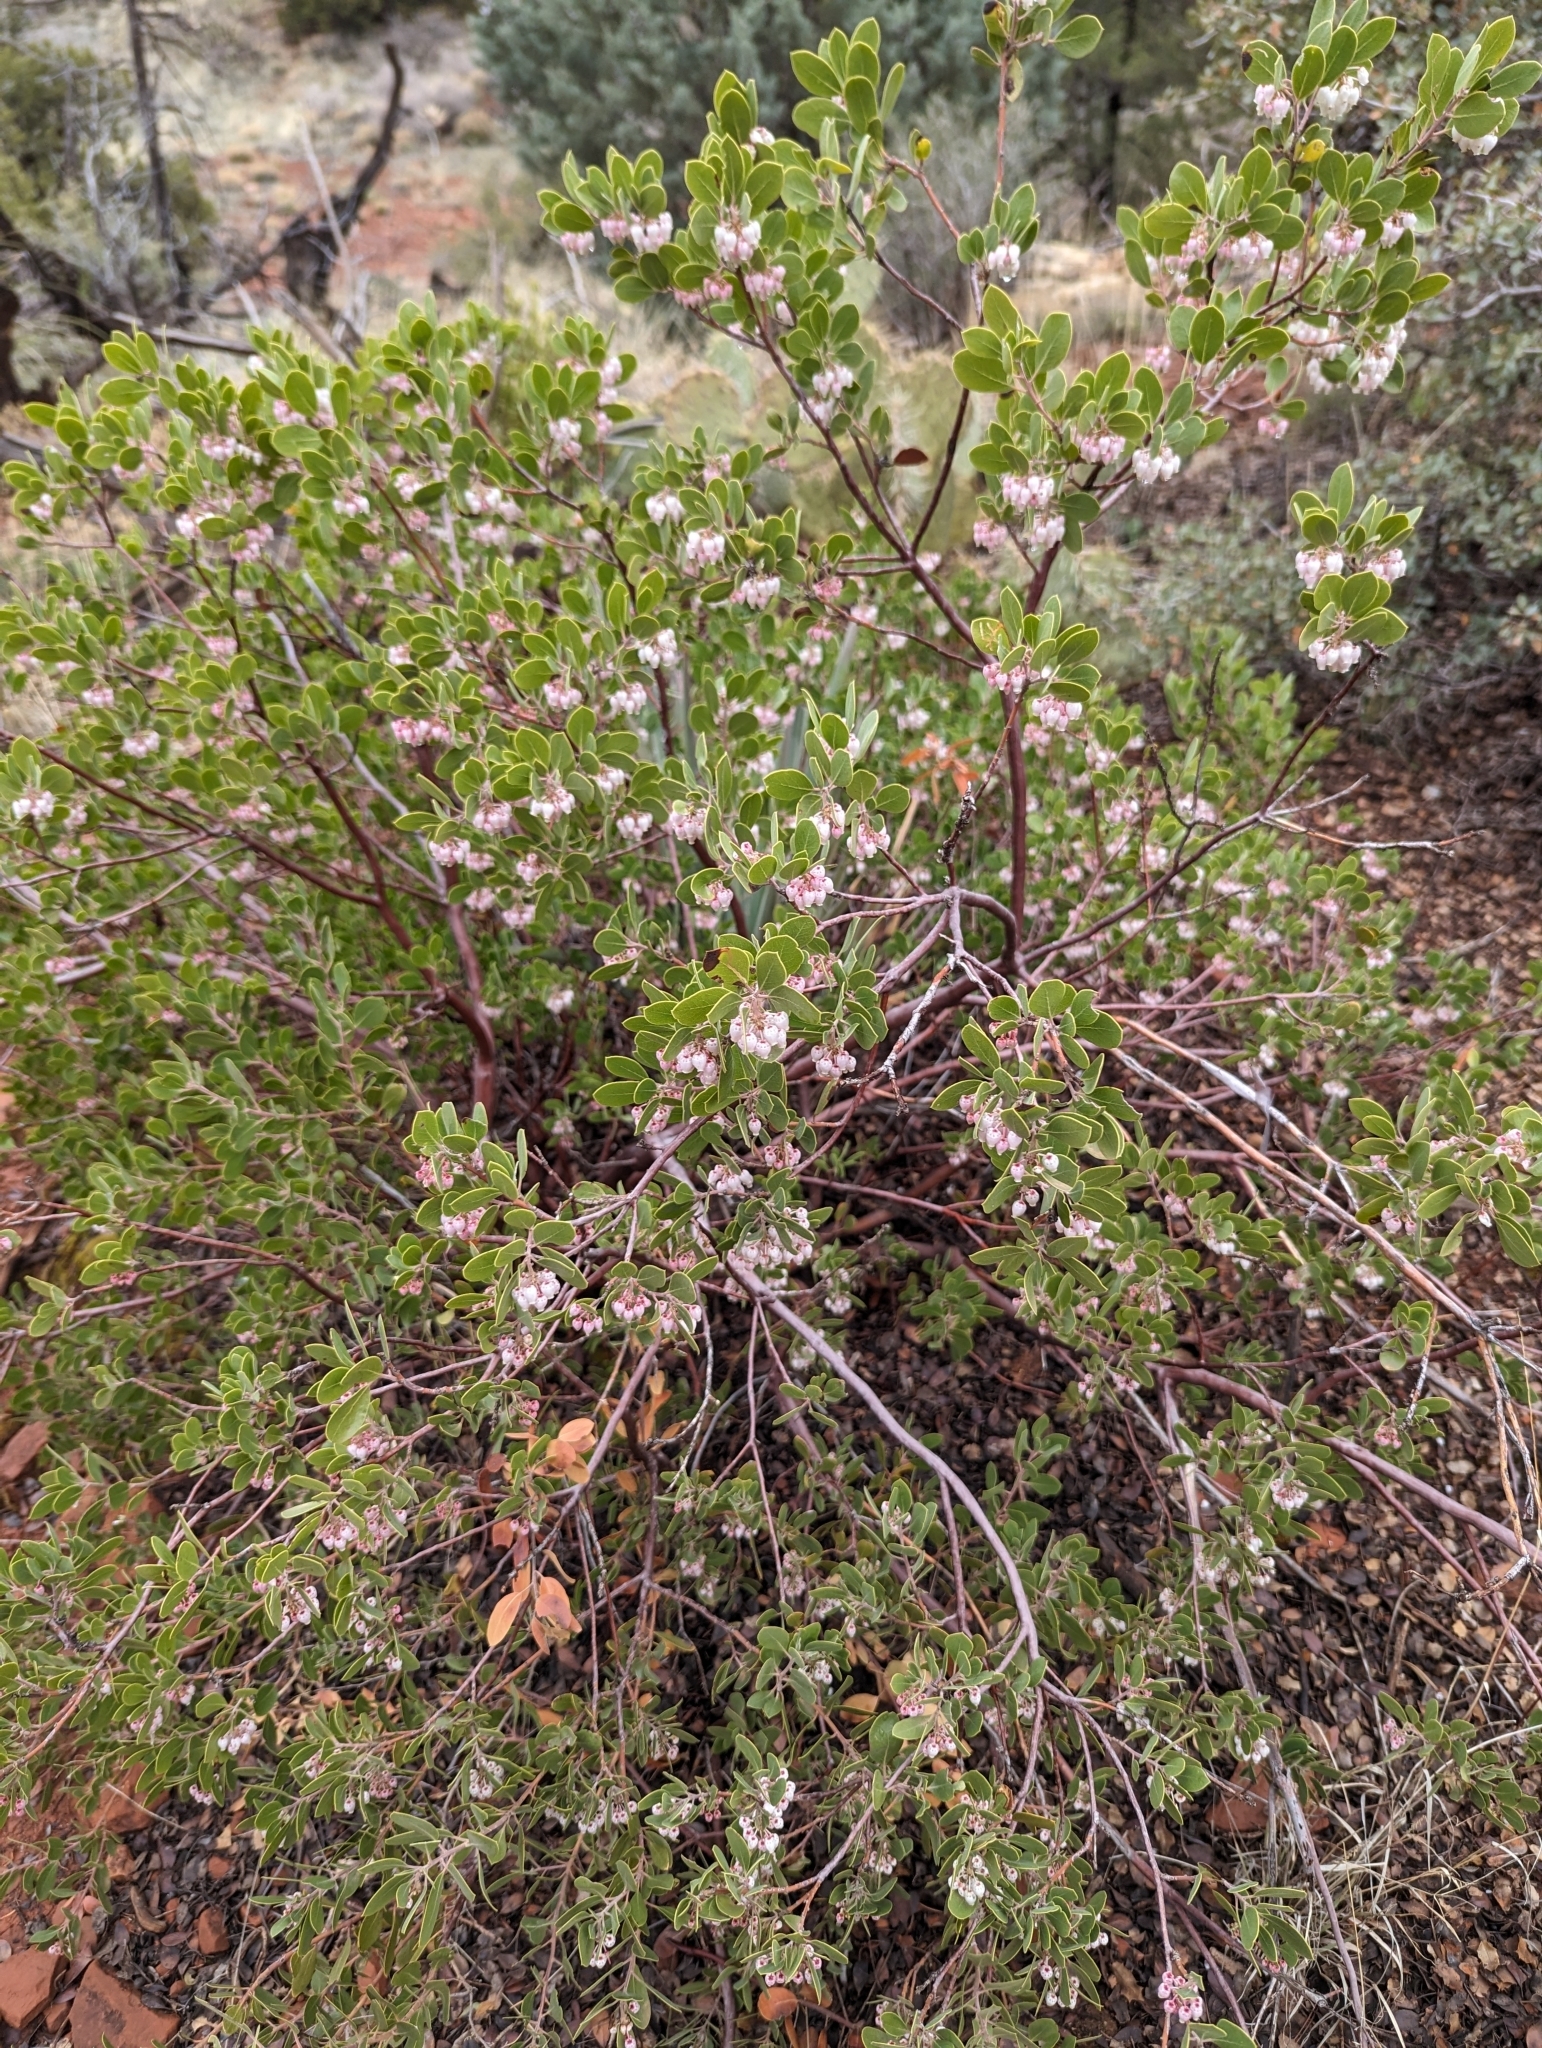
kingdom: Plantae
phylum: Tracheophyta
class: Magnoliopsida
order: Ericales
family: Ericaceae
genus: Arctostaphylos
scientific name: Arctostaphylos pungens
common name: Mexican manzanita
